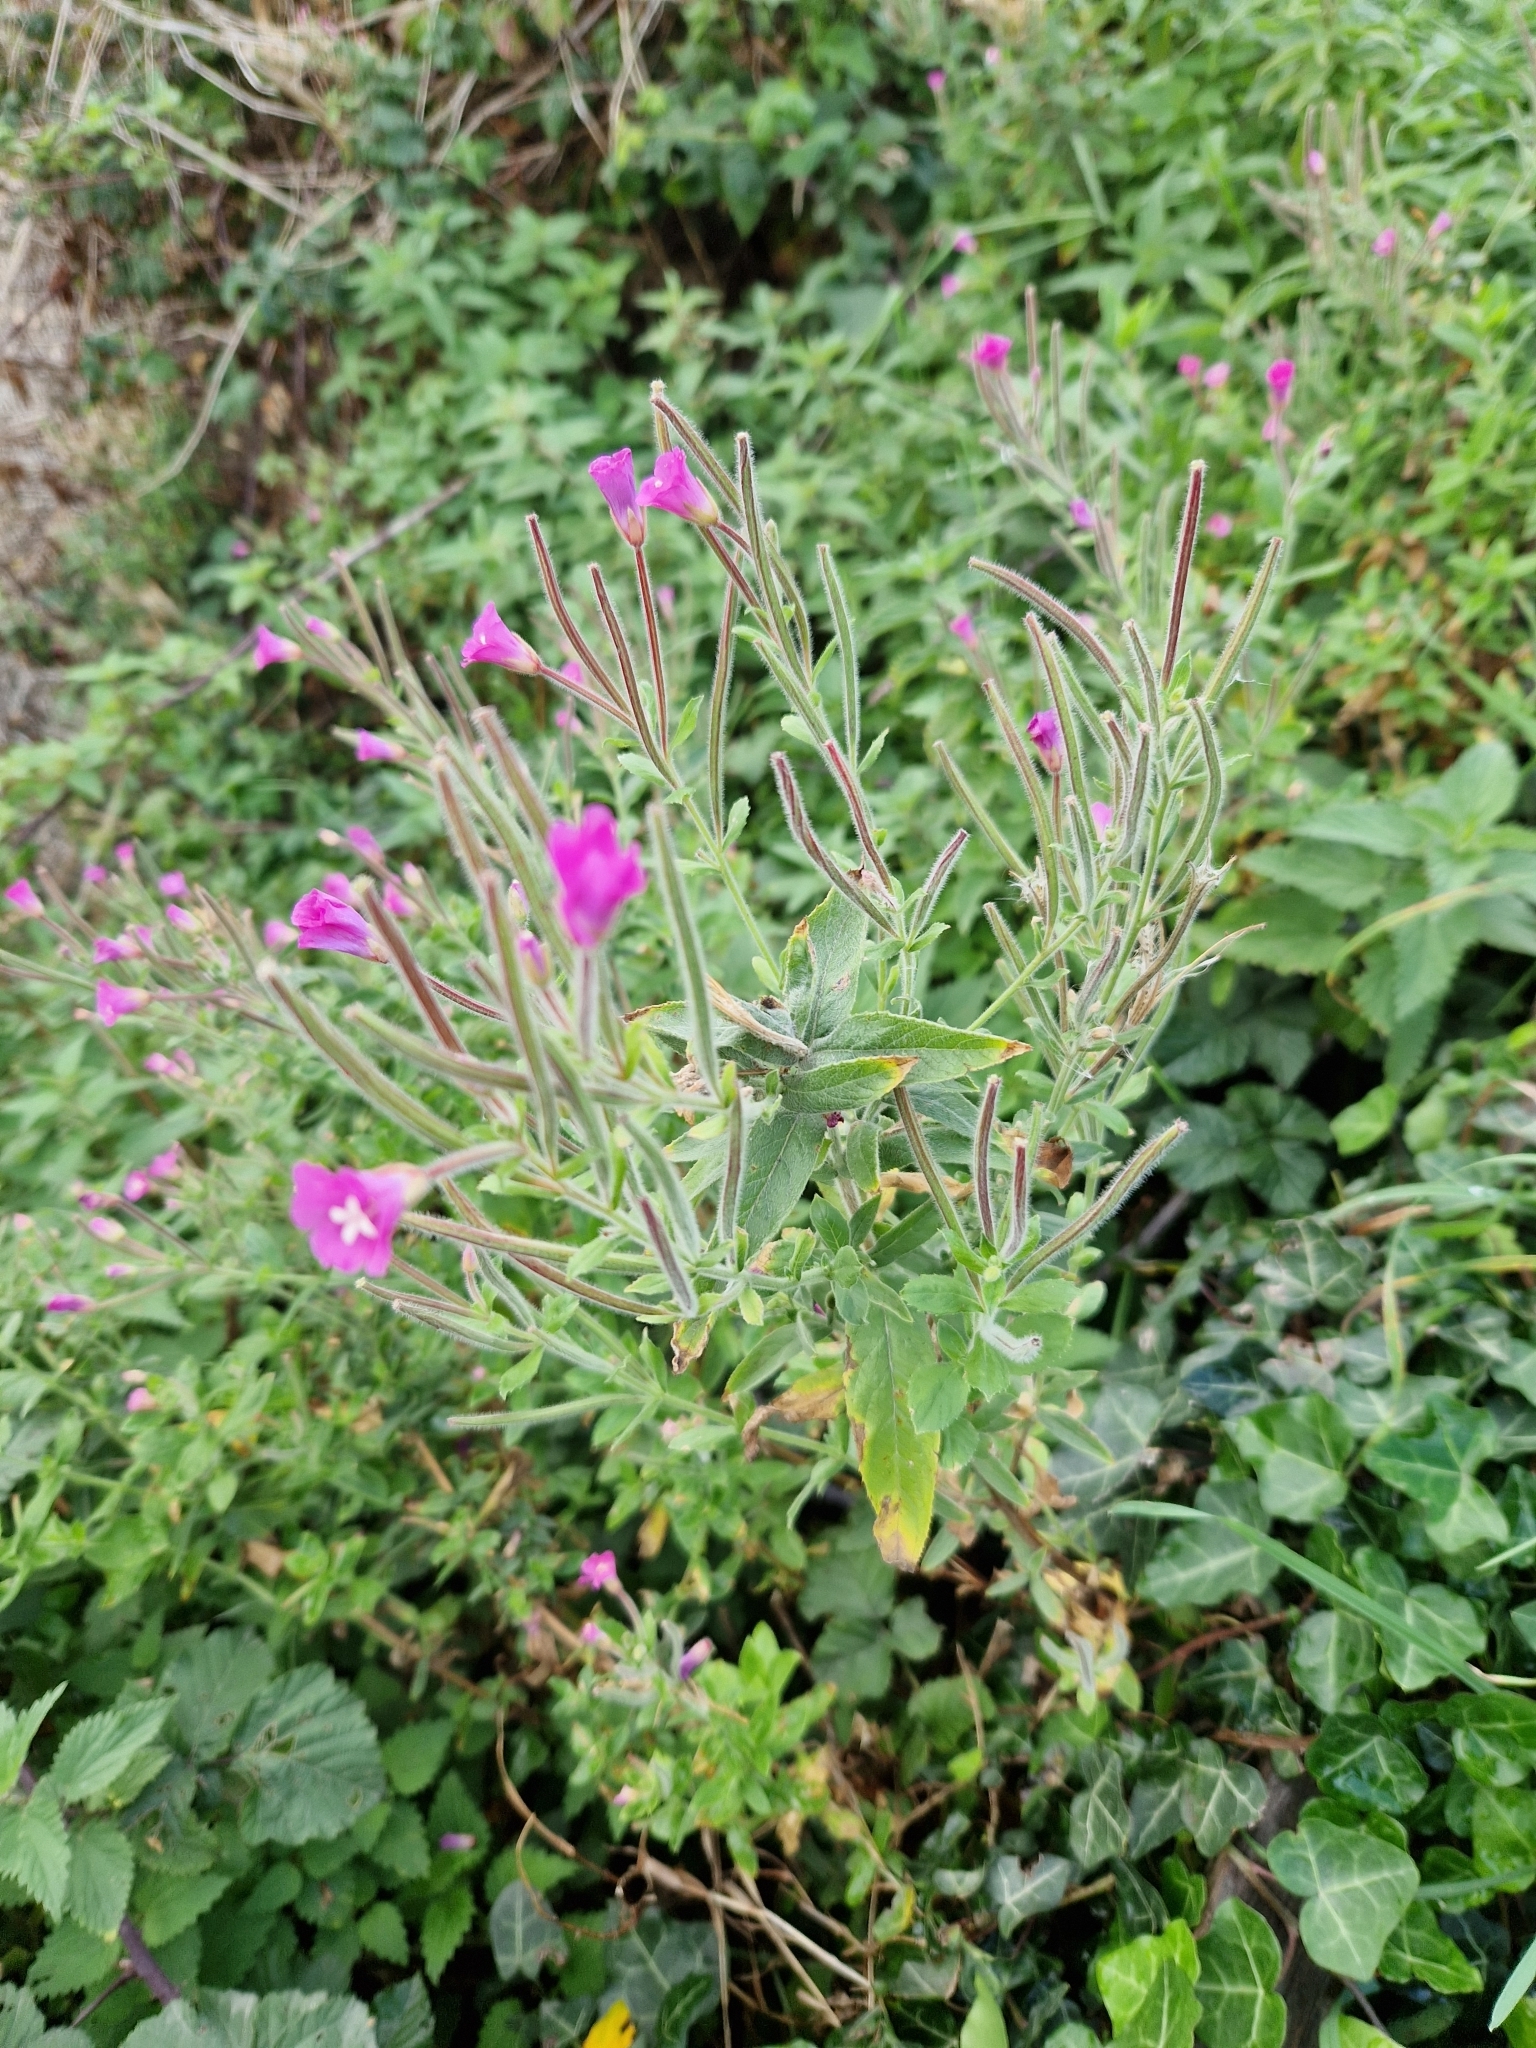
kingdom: Plantae
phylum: Tracheophyta
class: Magnoliopsida
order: Myrtales
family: Onagraceae
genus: Epilobium
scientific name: Epilobium hirsutum
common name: Great willowherb
